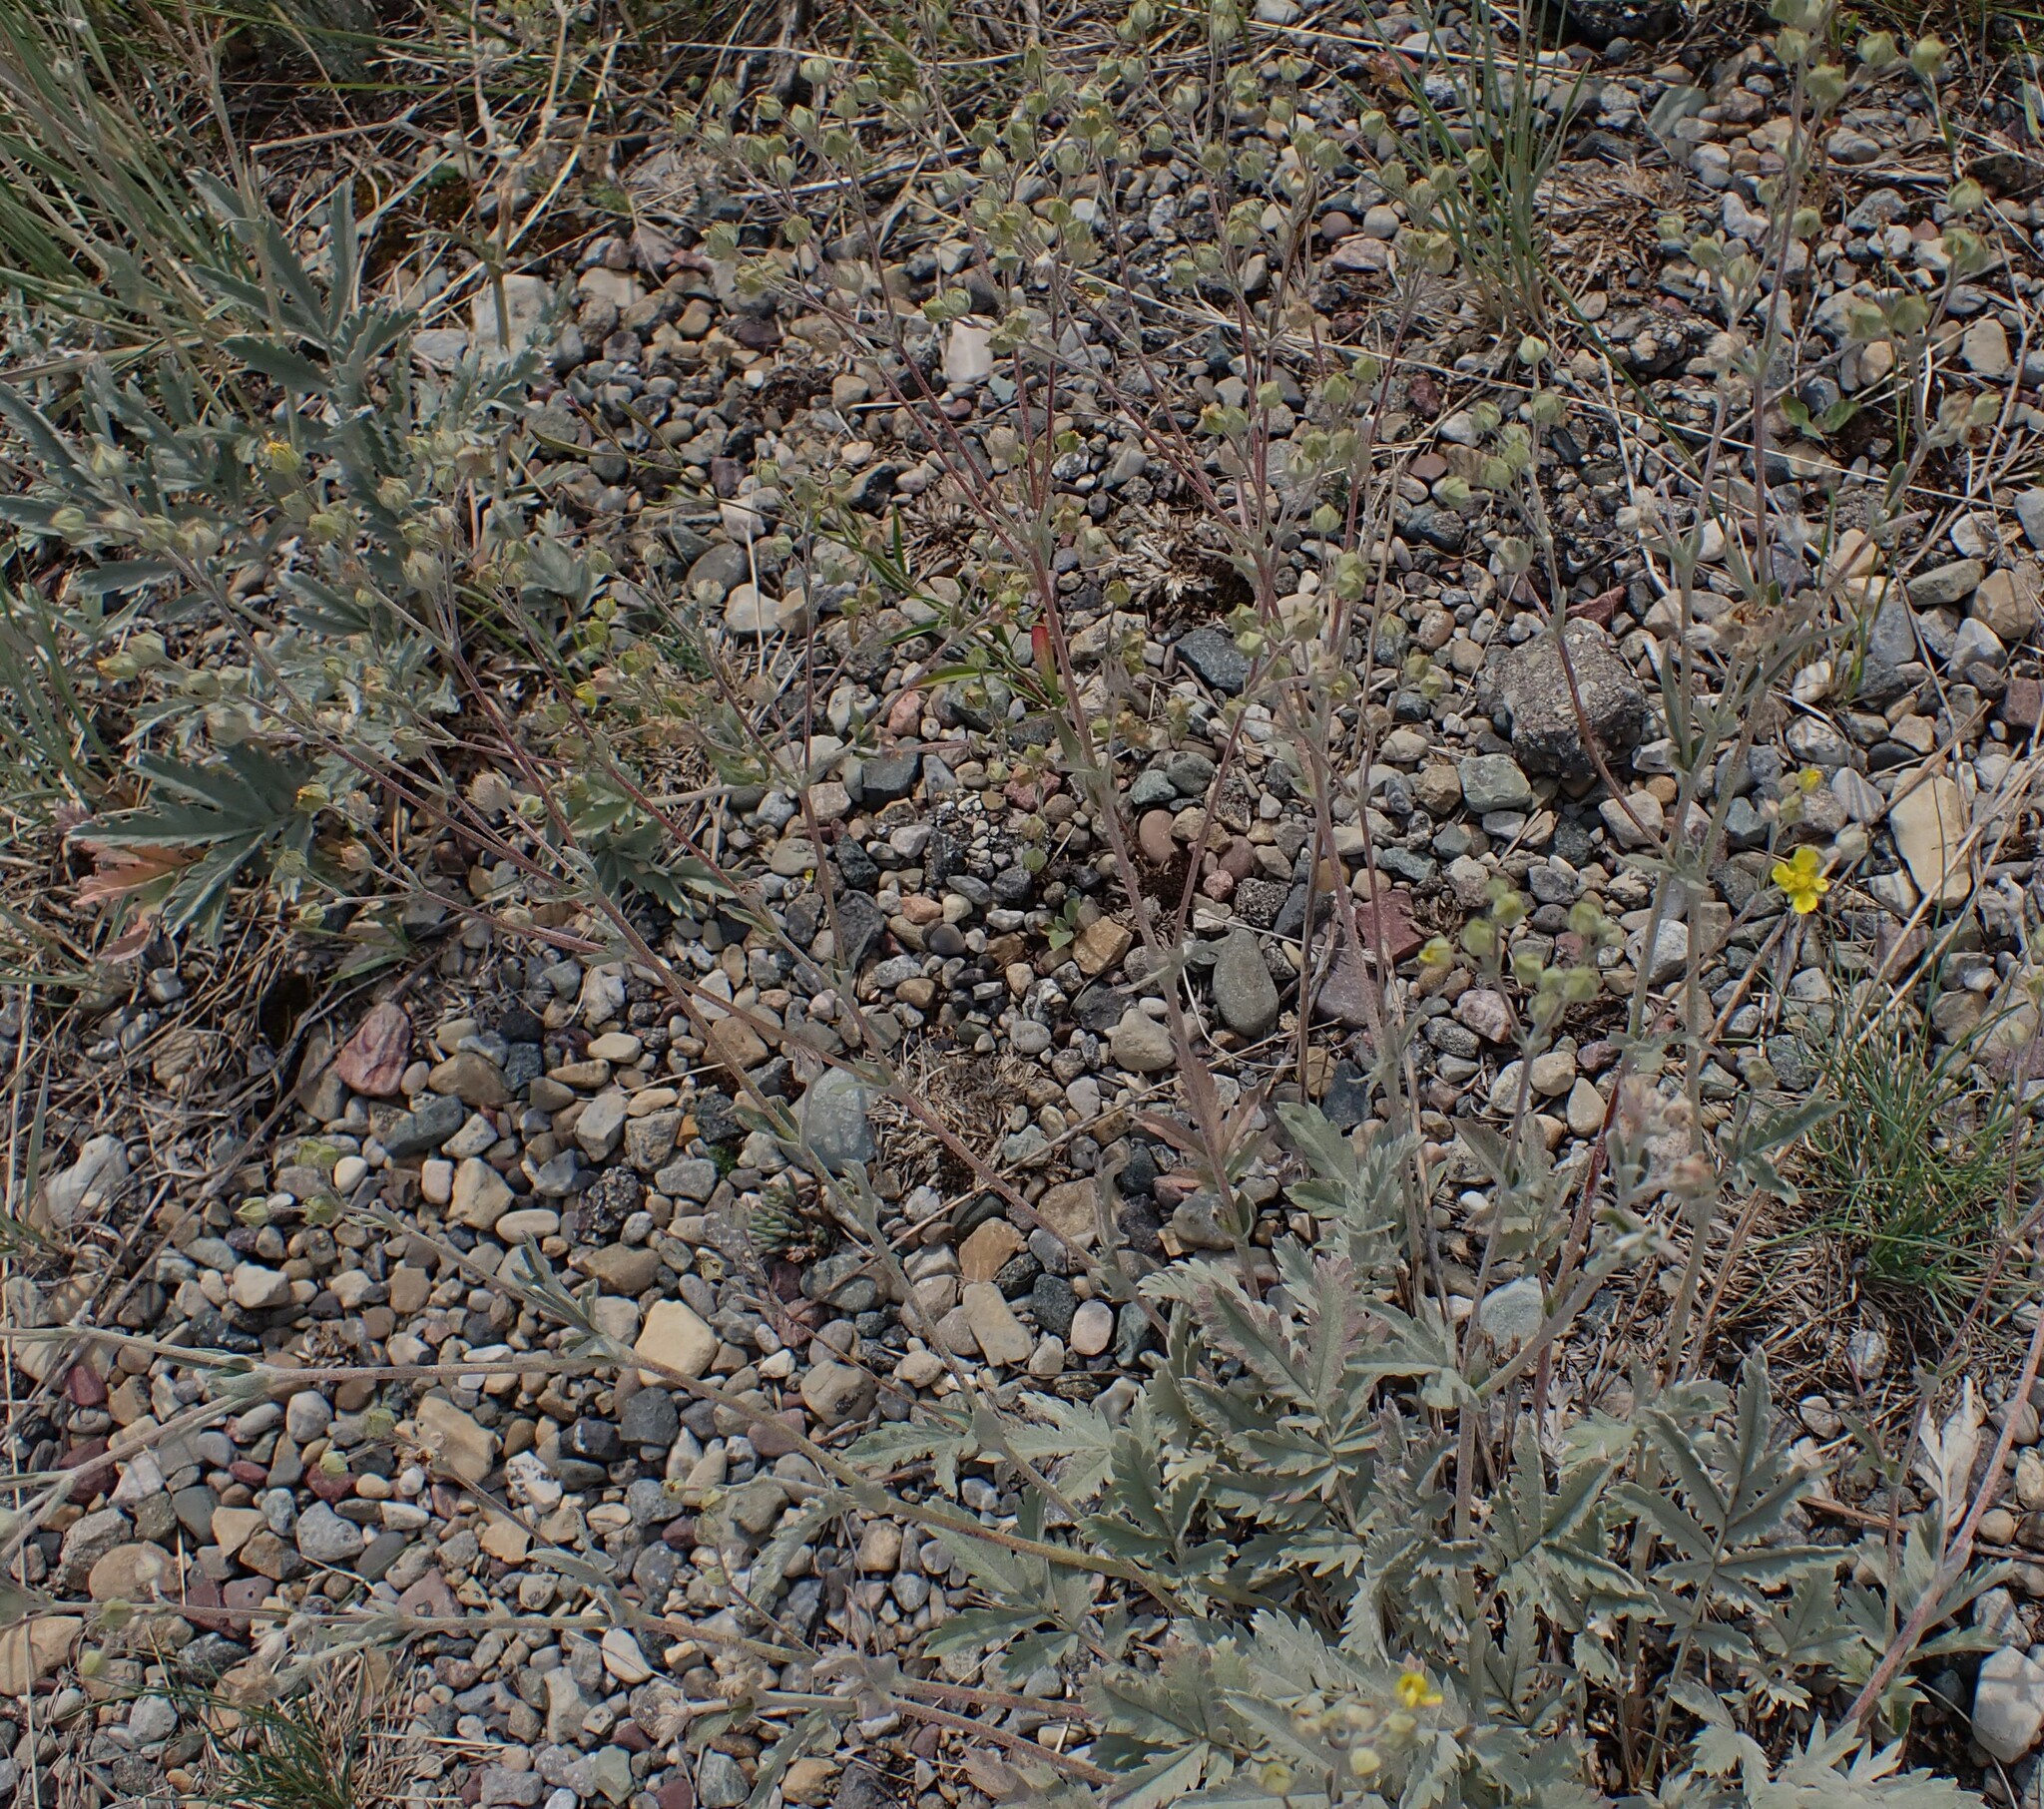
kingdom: Plantae
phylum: Tracheophyta
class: Magnoliopsida
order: Rosales
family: Rosaceae
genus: Potentilla
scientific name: Potentilla effusa
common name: Branched cinquefoil
